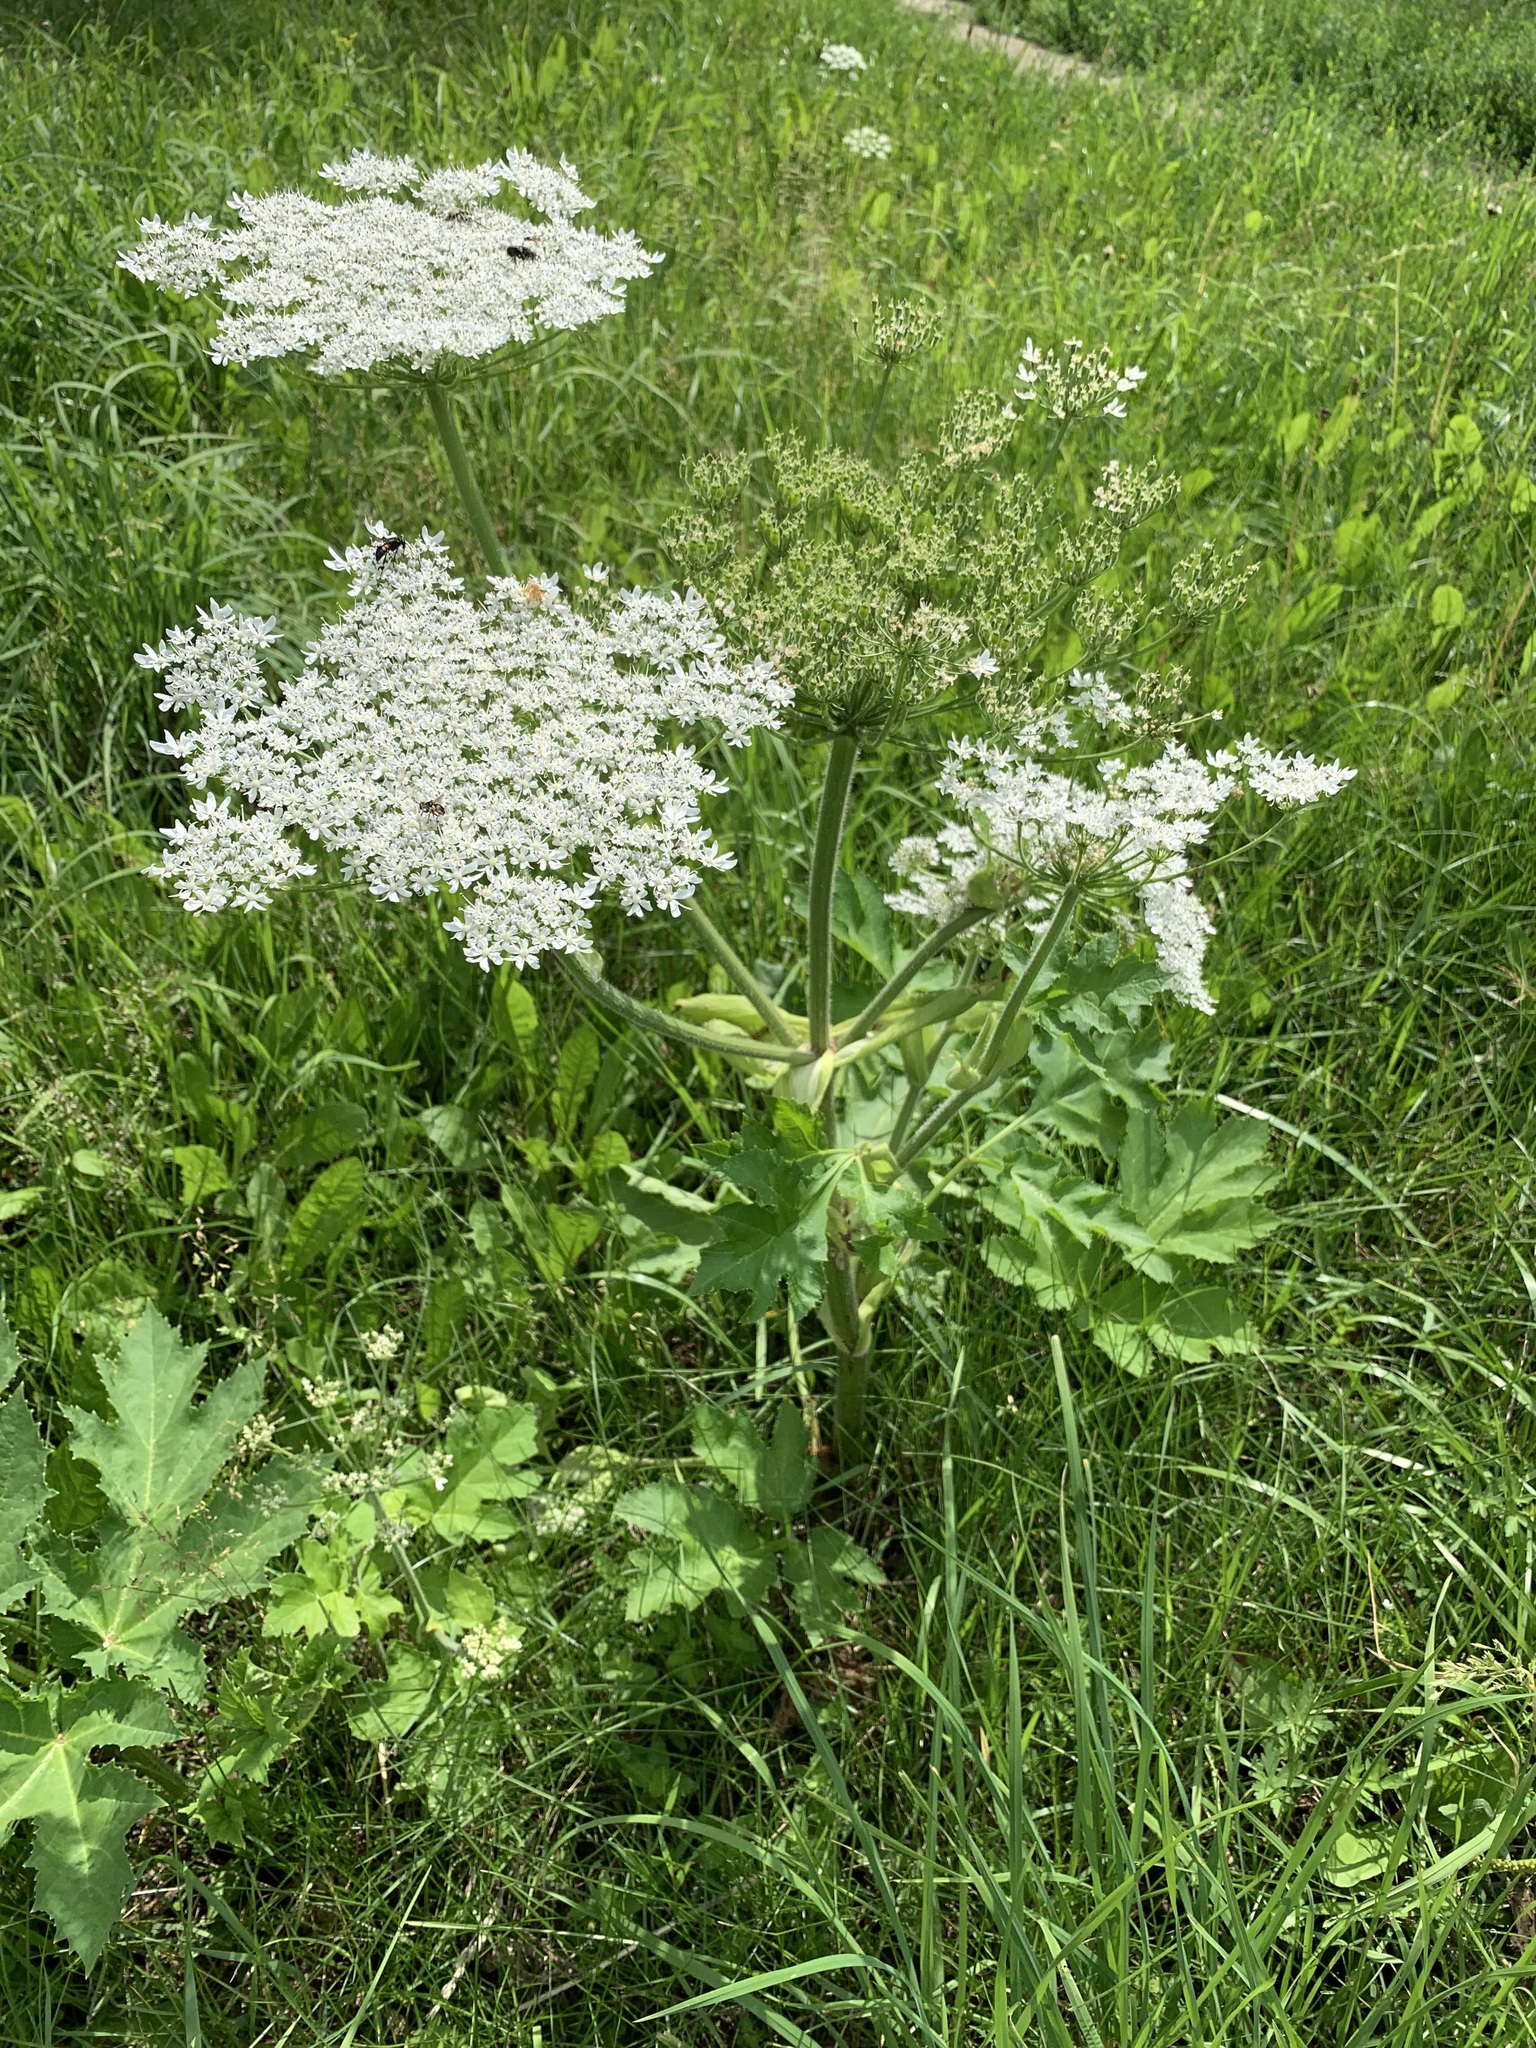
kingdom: Plantae
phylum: Tracheophyta
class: Magnoliopsida
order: Apiales
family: Apiaceae
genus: Heracleum
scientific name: Heracleum sosnowskyi
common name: Sosnowsky's hogweed
